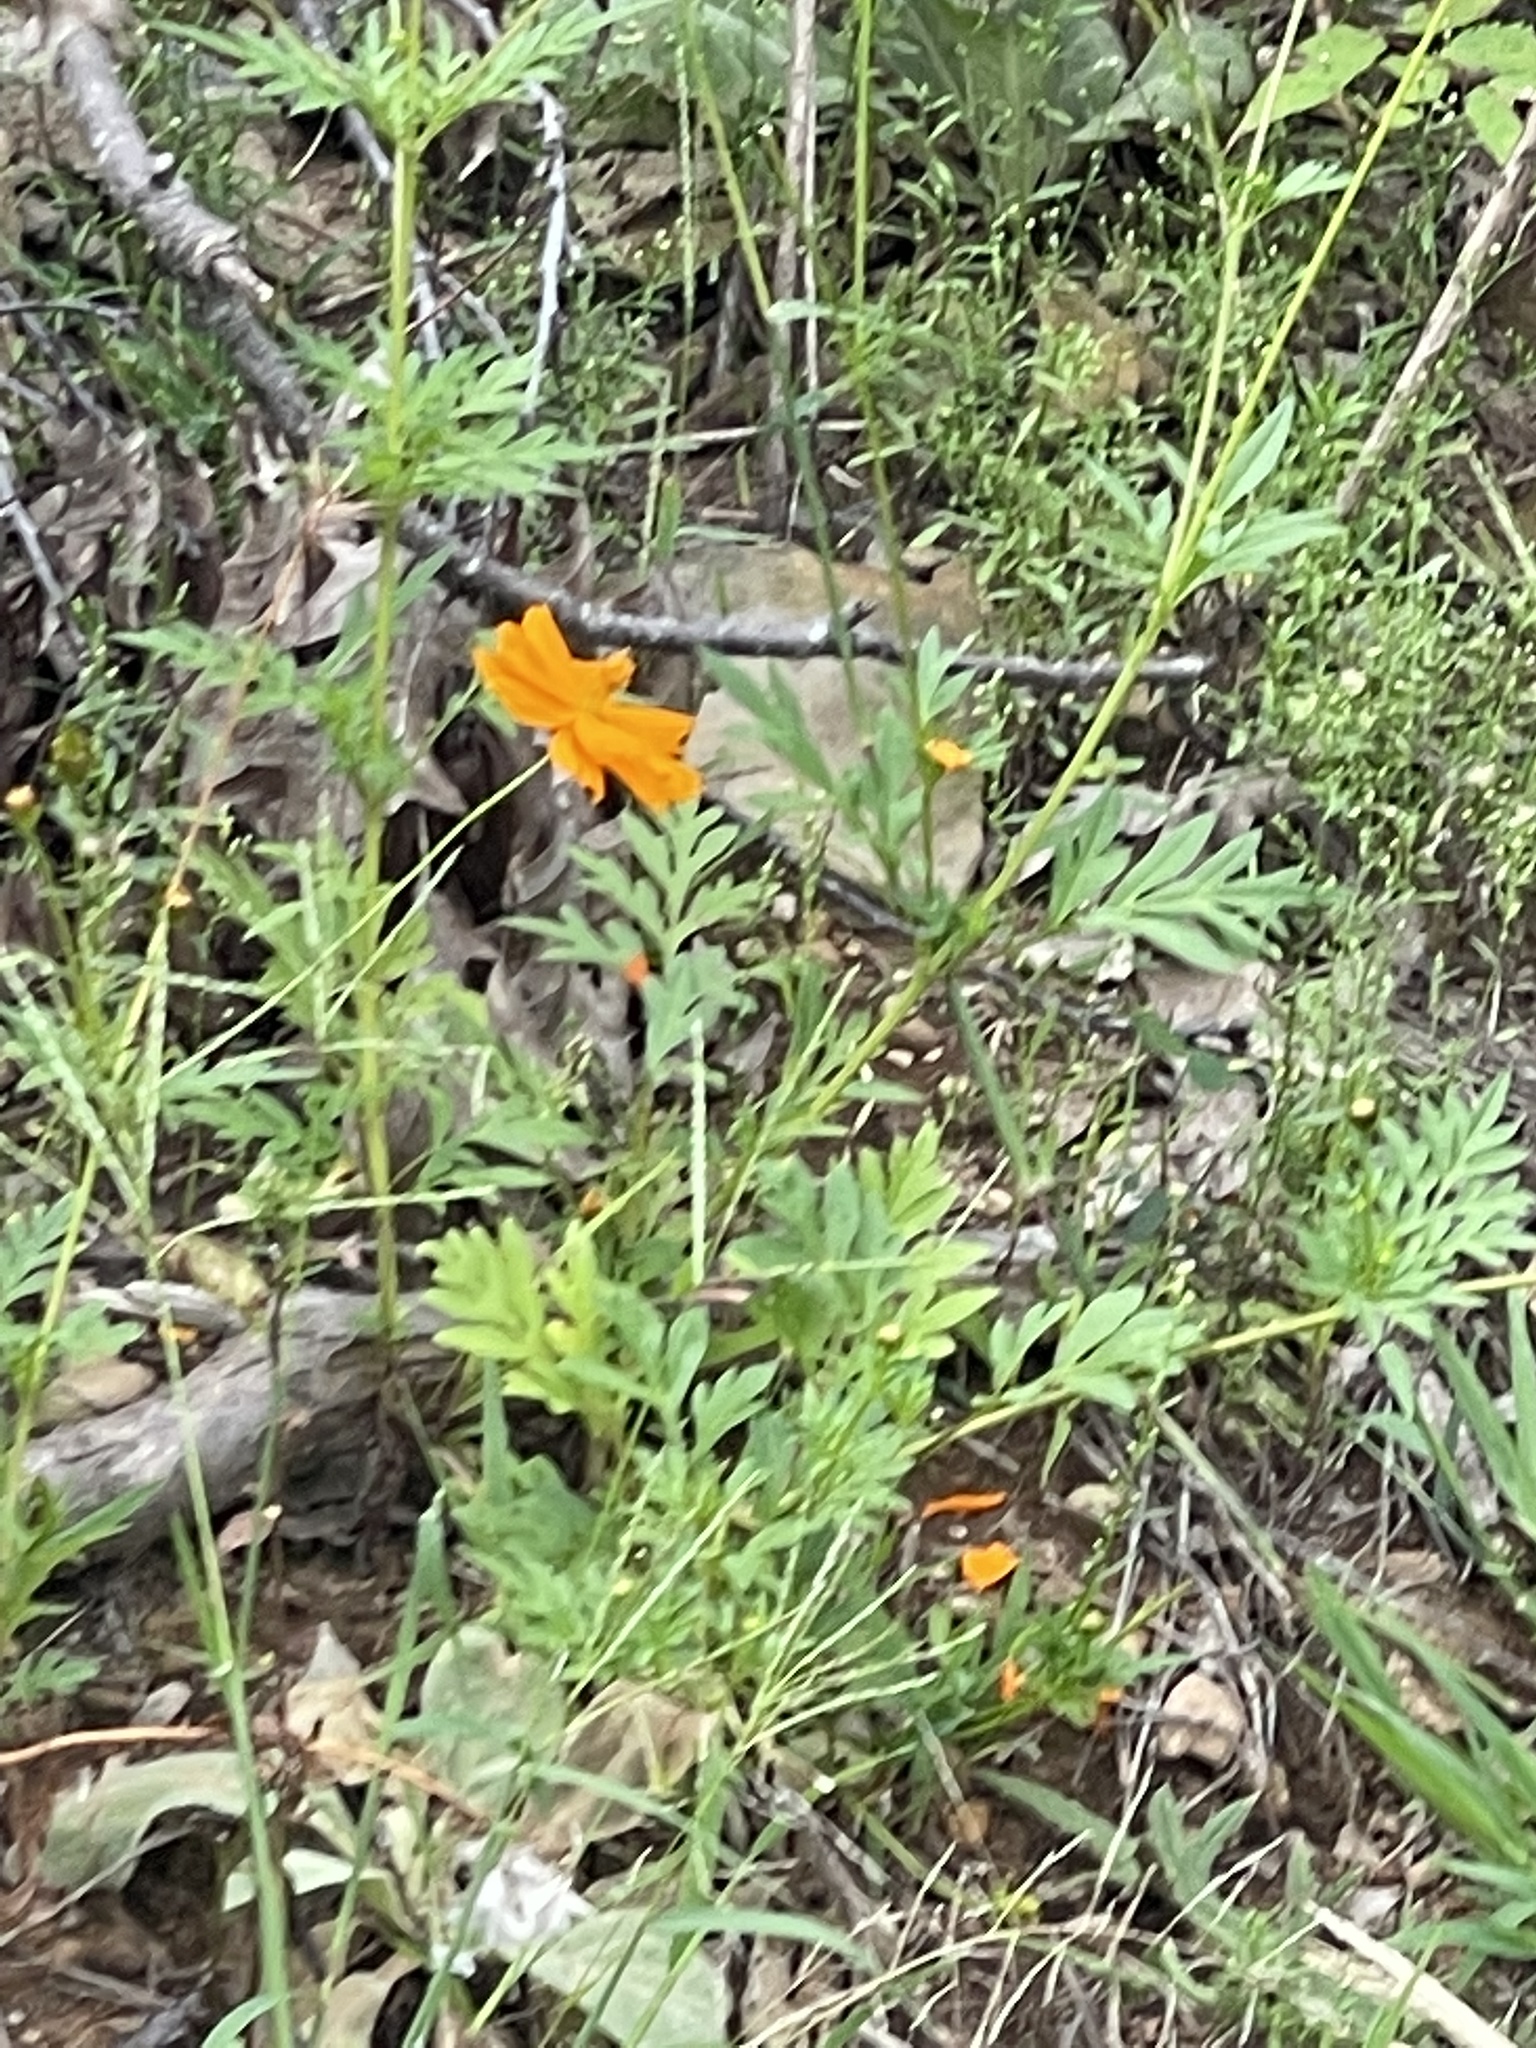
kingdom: Plantae
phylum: Tracheophyta
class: Magnoliopsida
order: Asterales
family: Asteraceae
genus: Cosmos
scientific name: Cosmos sulphureus
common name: Sulphur cosmos
